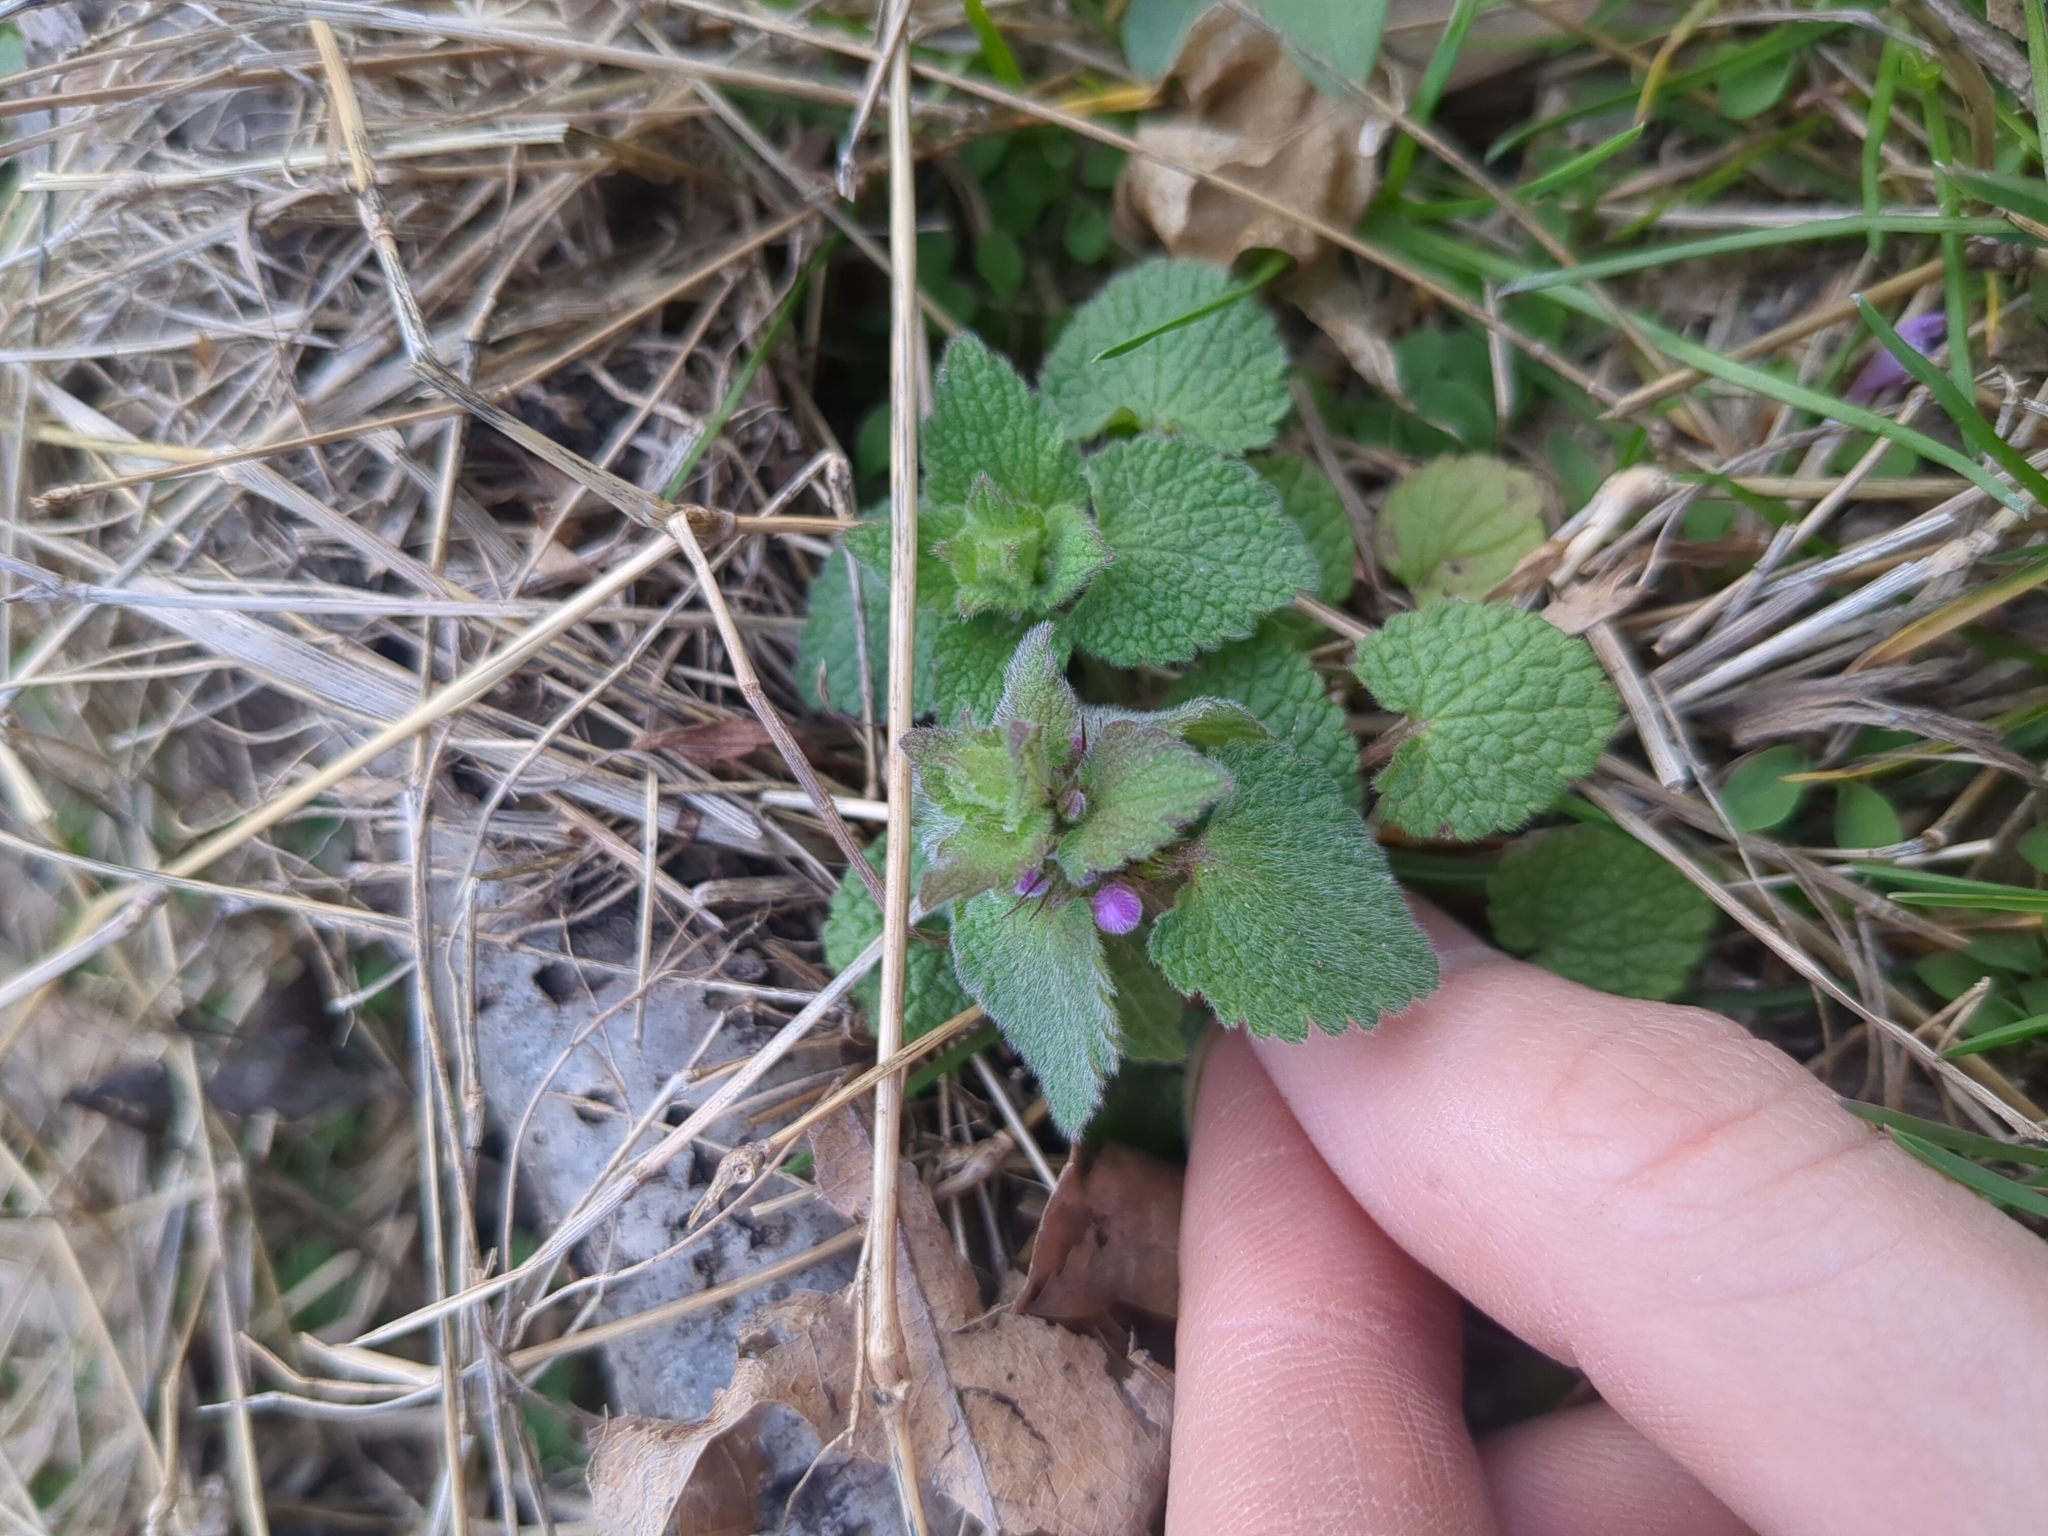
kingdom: Plantae
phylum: Tracheophyta
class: Magnoliopsida
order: Lamiales
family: Lamiaceae
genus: Lamium
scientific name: Lamium purpureum
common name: Red dead-nettle
